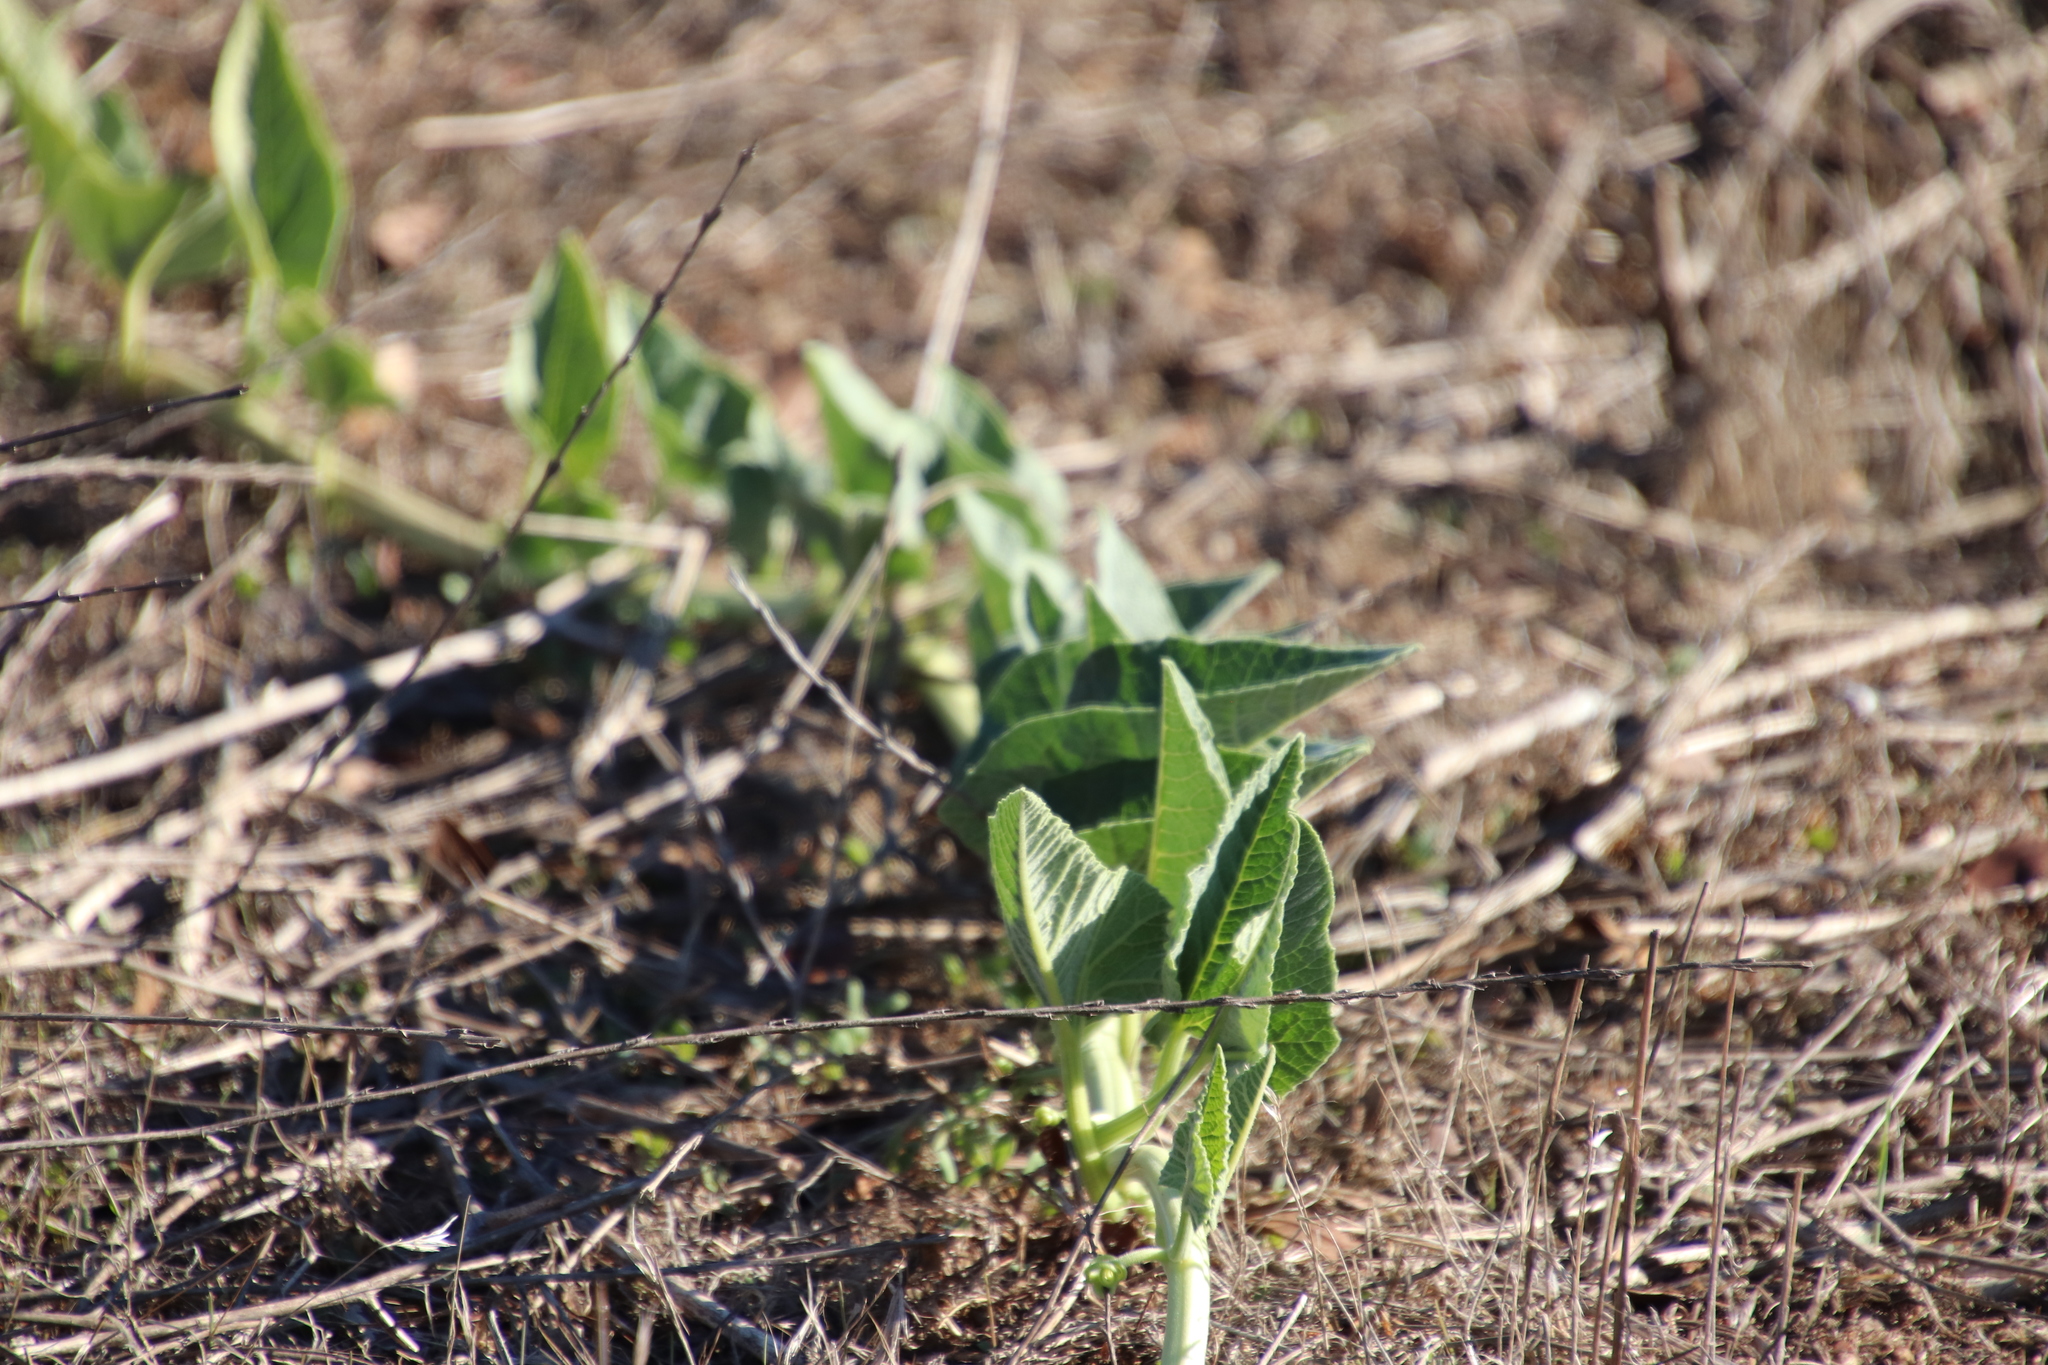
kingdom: Plantae
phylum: Tracheophyta
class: Magnoliopsida
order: Cucurbitales
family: Cucurbitaceae
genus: Cucurbita
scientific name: Cucurbita foetidissima
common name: Buffalo gourd
